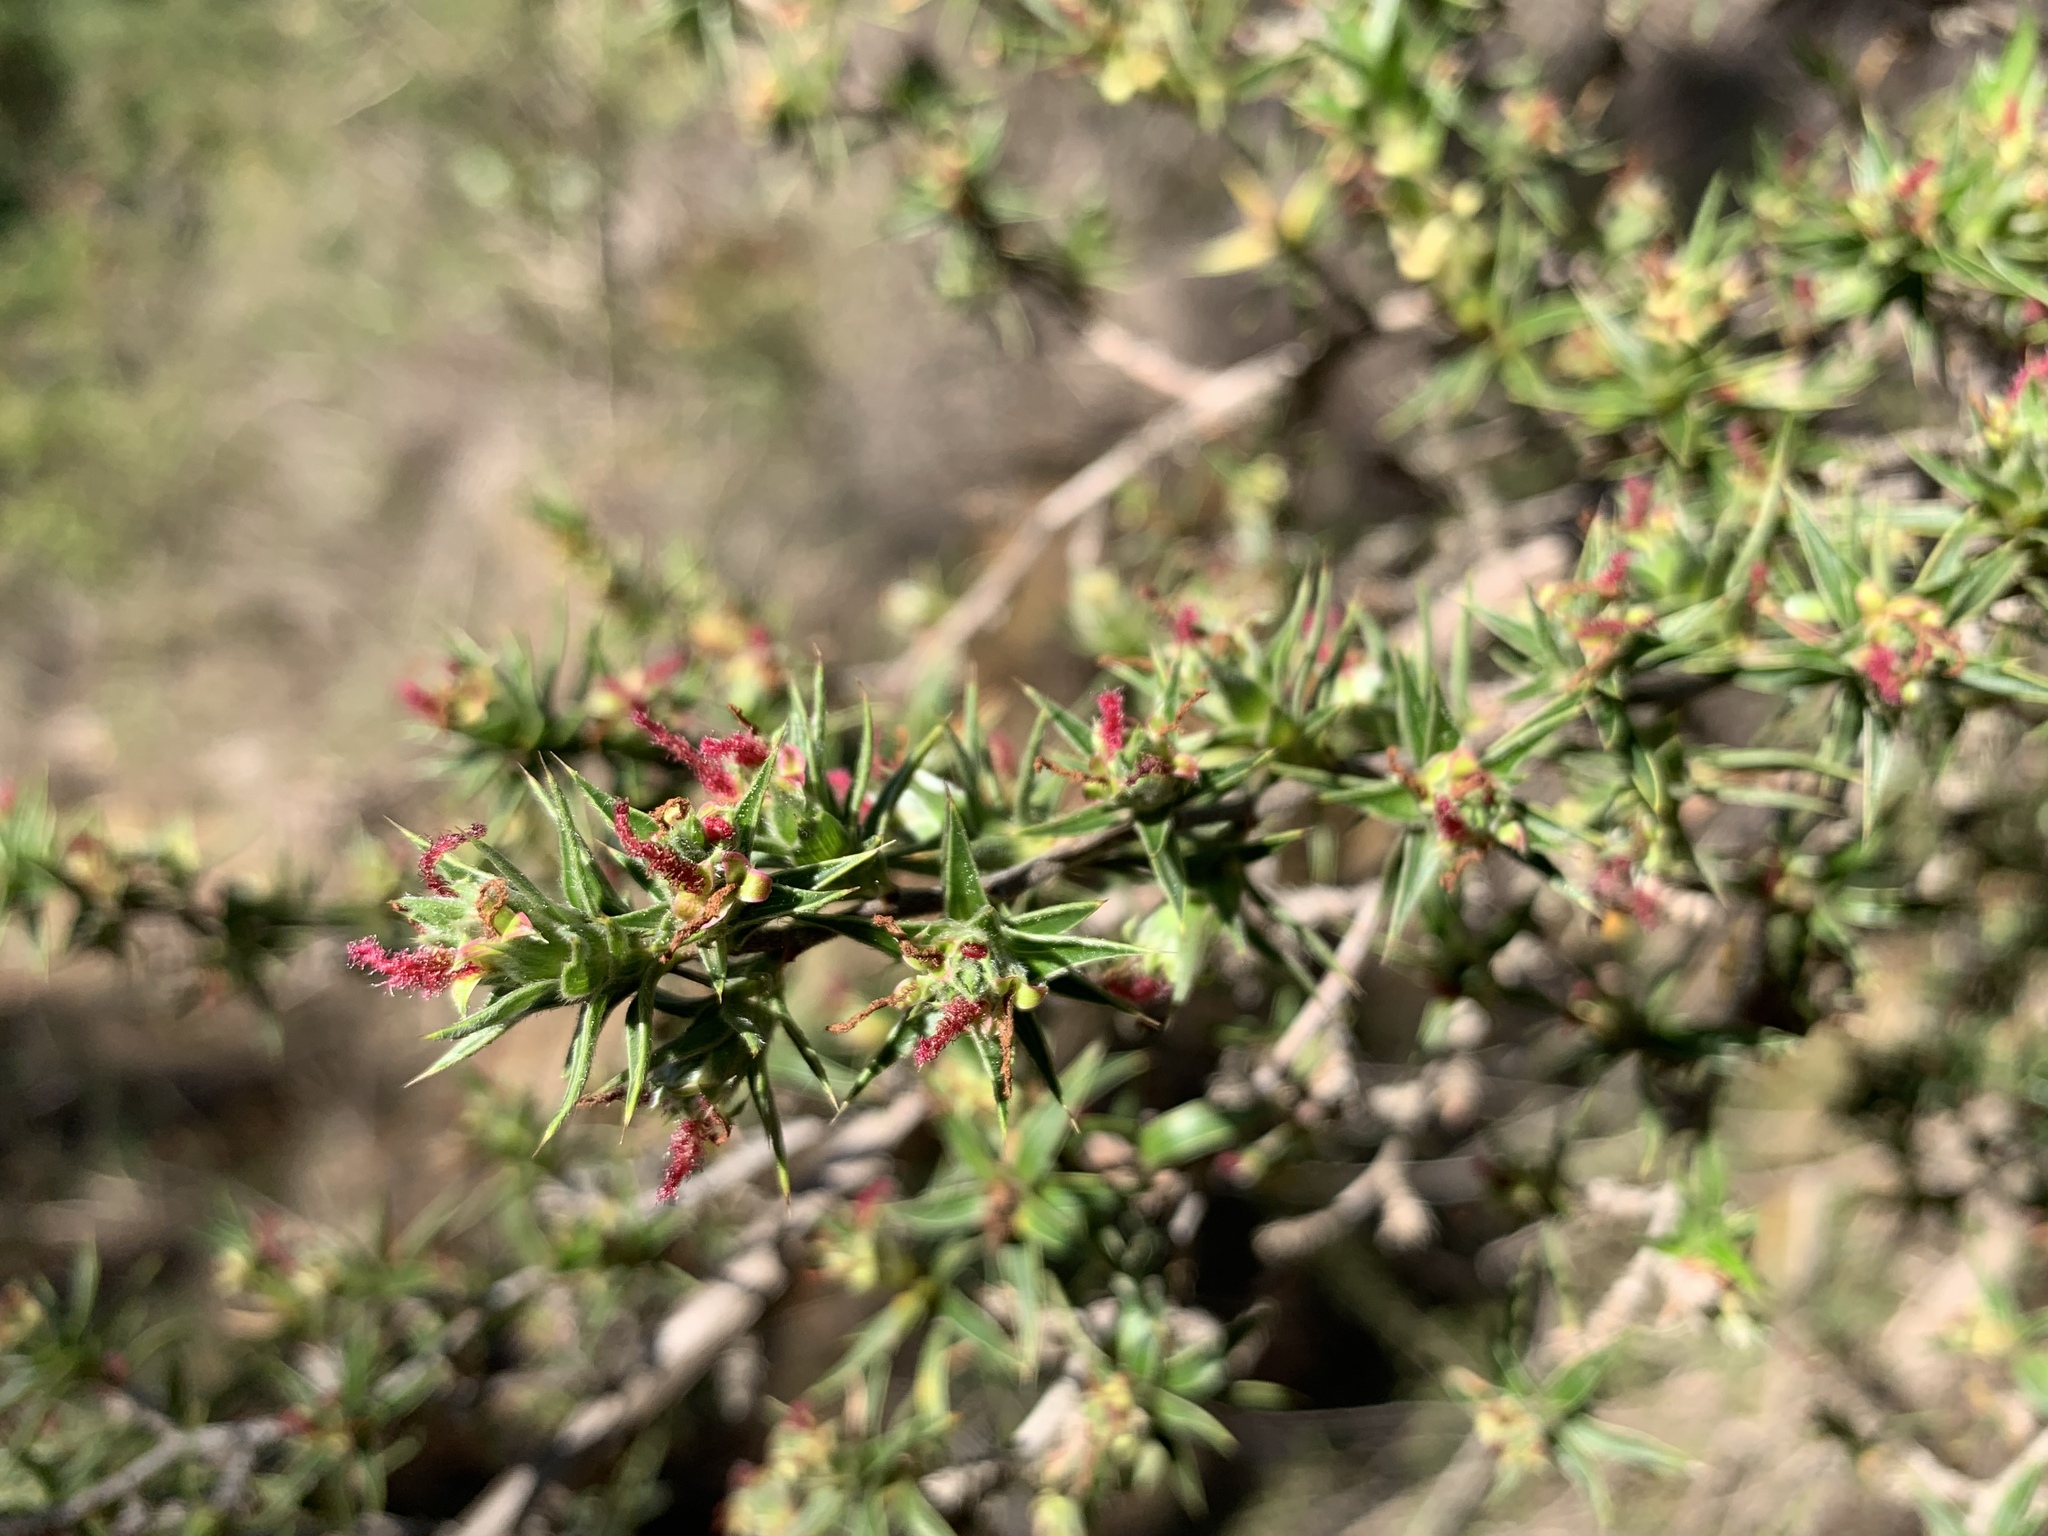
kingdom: Plantae
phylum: Tracheophyta
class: Magnoliopsida
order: Rosales
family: Rosaceae
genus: Cliffortia
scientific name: Cliffortia ruscifolia
